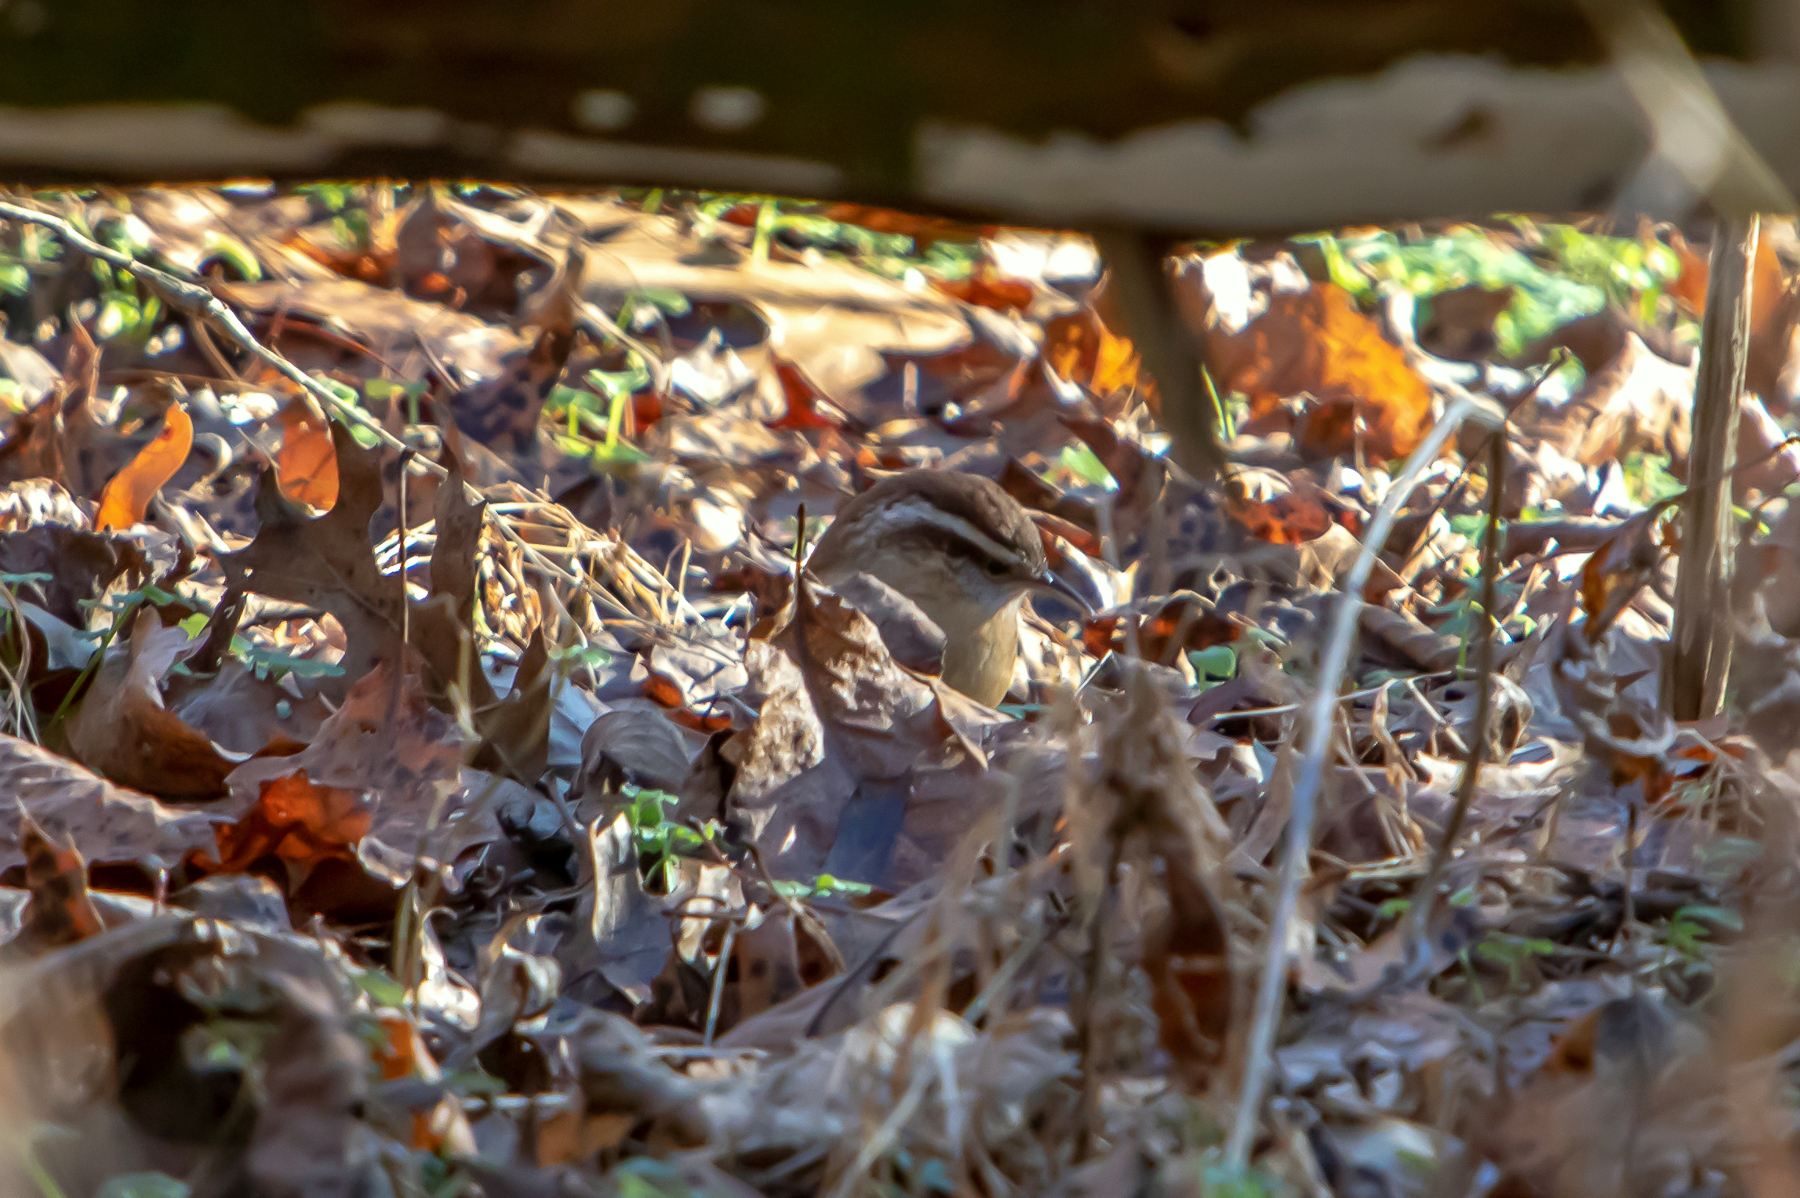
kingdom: Animalia
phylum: Chordata
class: Aves
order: Passeriformes
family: Troglodytidae
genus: Thryothorus
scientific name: Thryothorus ludovicianus
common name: Carolina wren
